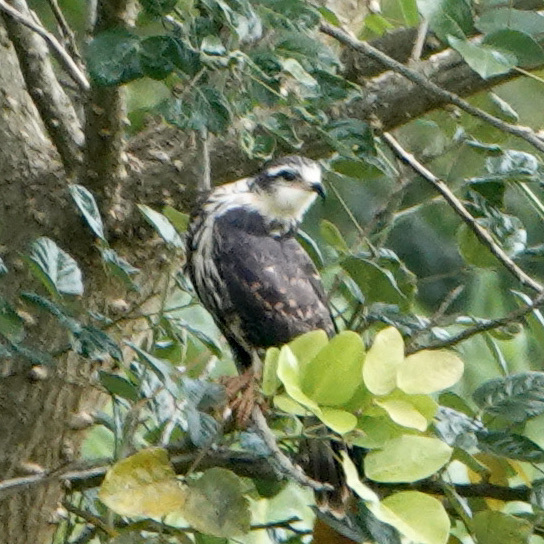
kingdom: Animalia
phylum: Chordata
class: Aves
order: Accipitriformes
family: Accipitridae
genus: Rostrhamus
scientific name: Rostrhamus sociabilis
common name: Snail kite
